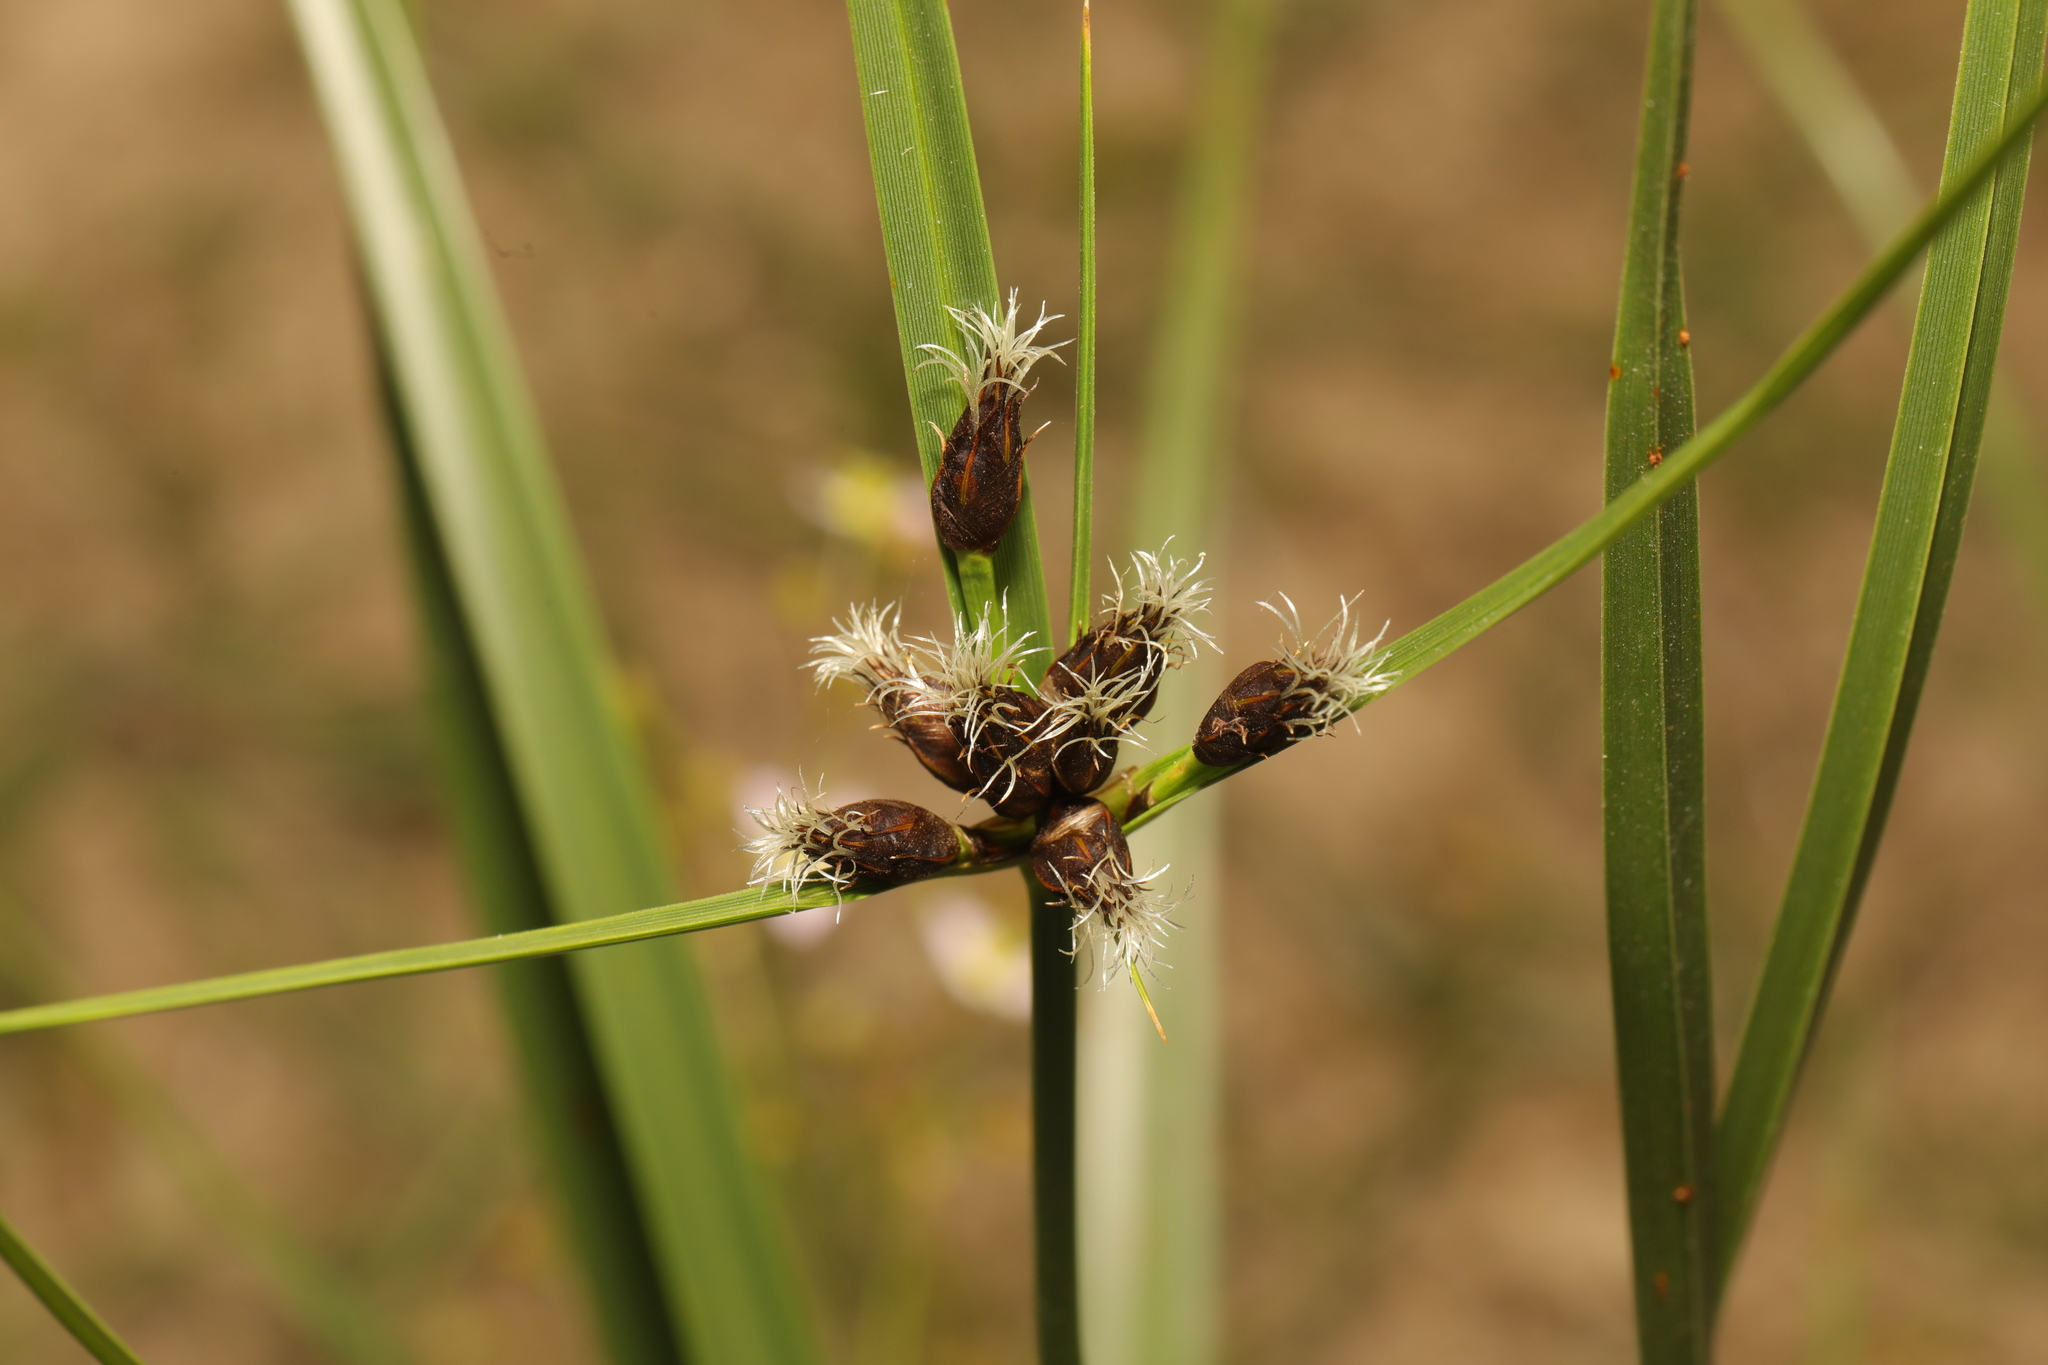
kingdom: Plantae
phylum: Tracheophyta
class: Liliopsida
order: Poales
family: Cyperaceae
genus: Bolboschoenus
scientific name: Bolboschoenus maritimus
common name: Sea club-rush
